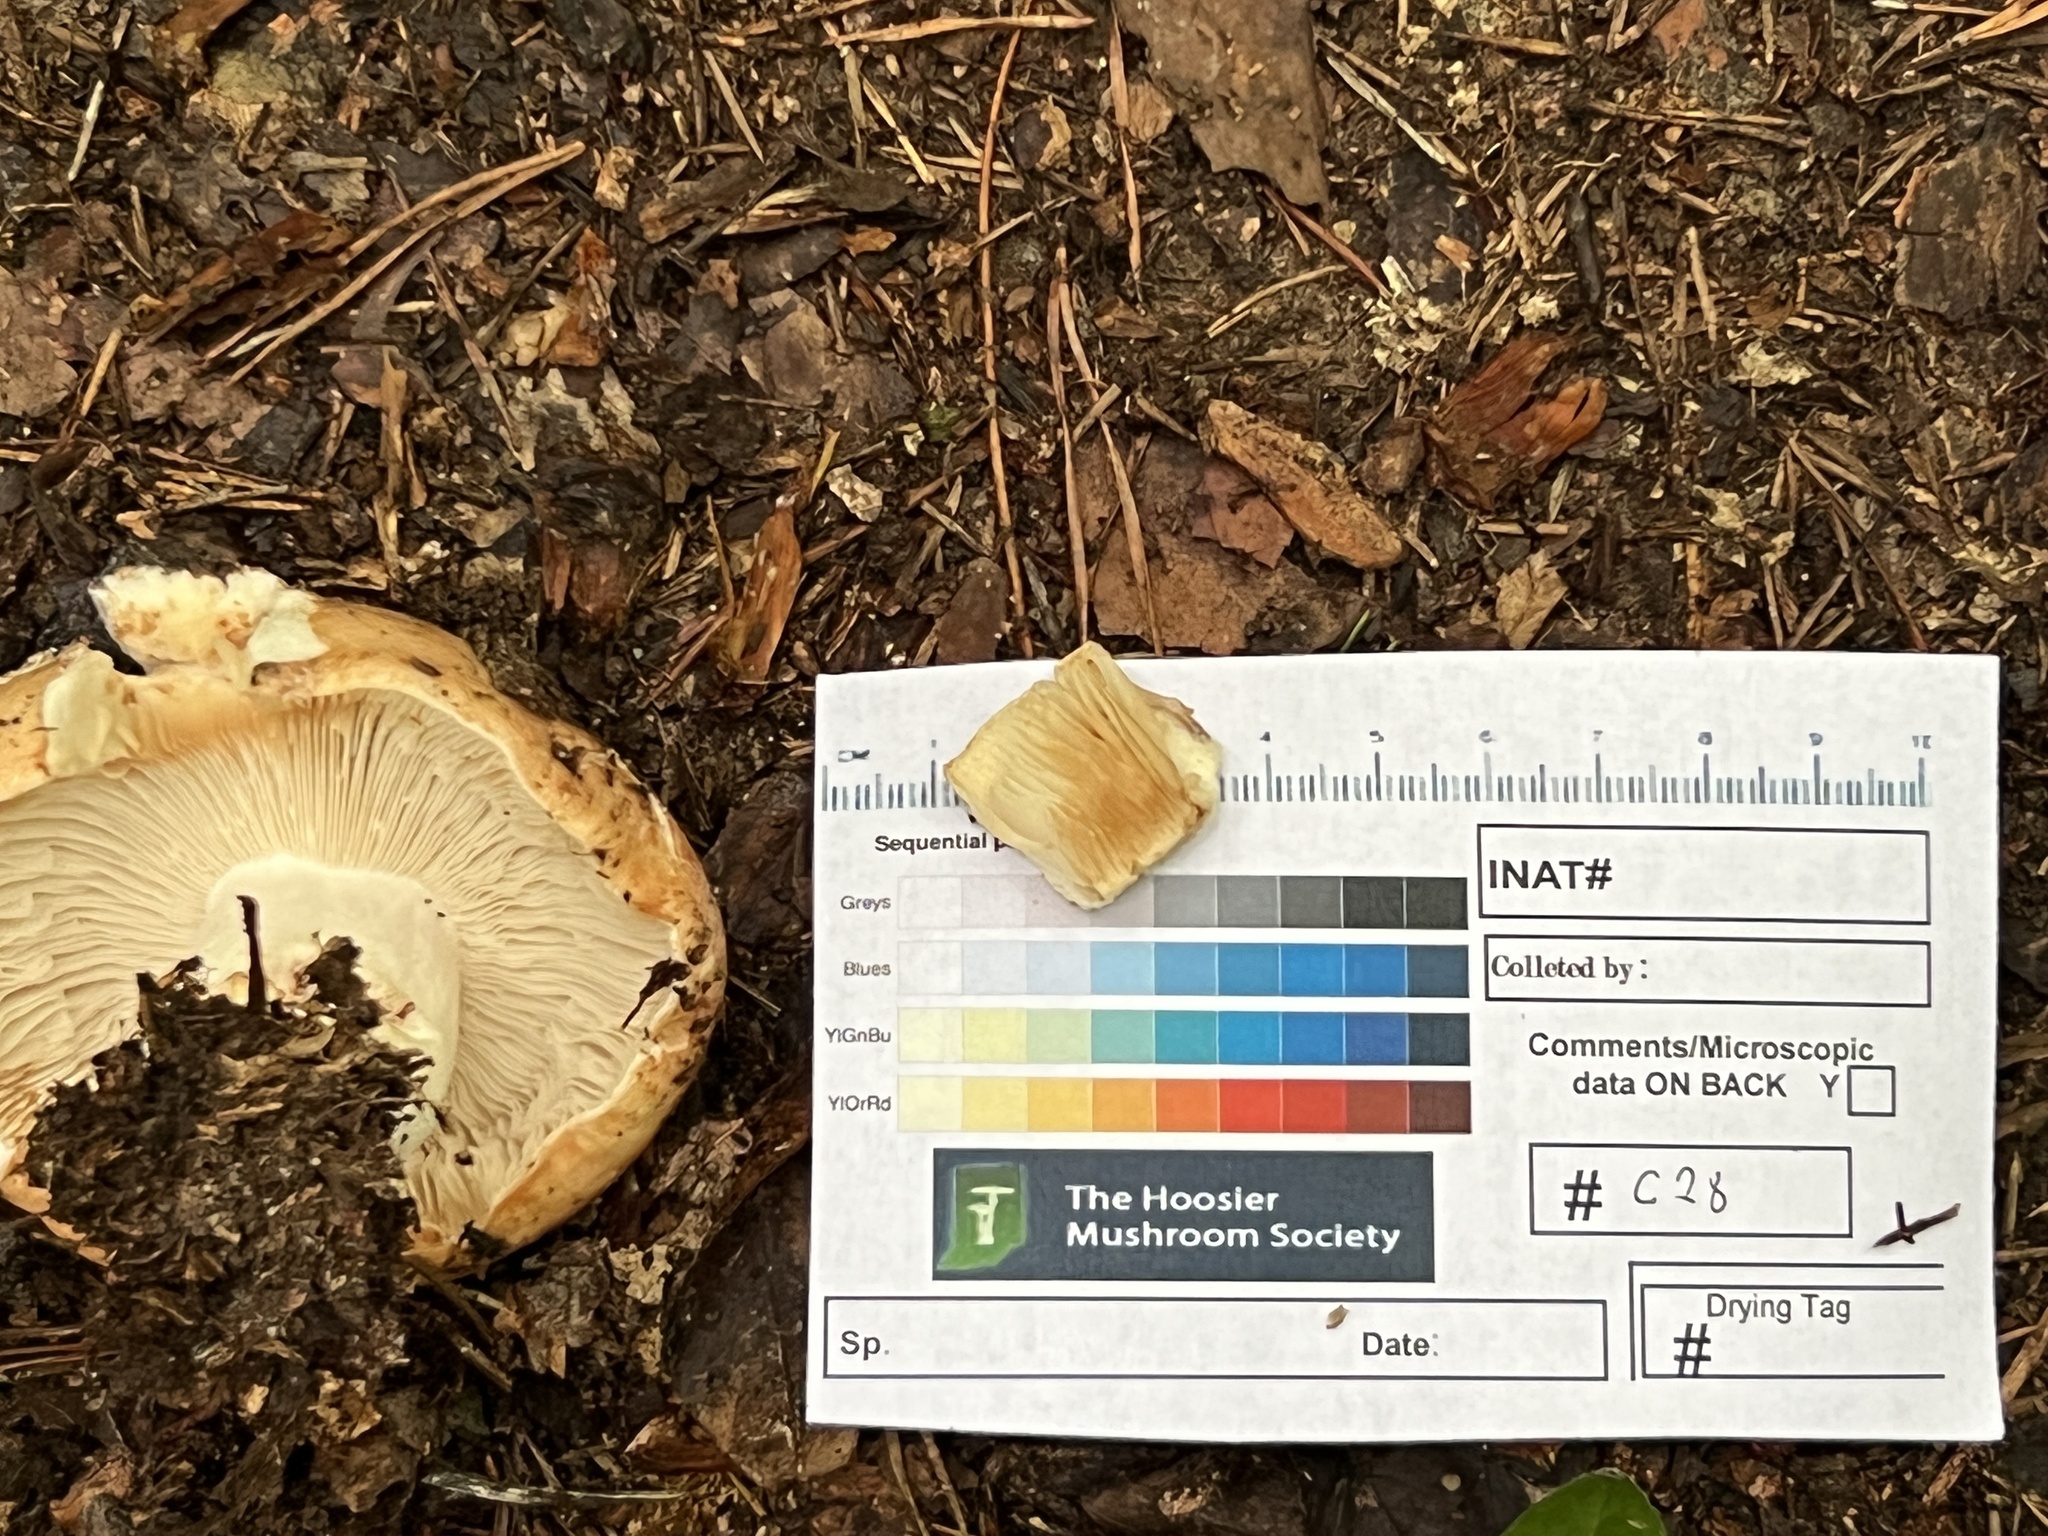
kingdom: Fungi
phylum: Basidiomycota
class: Agaricomycetes
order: Russulales
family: Russulaceae
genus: Russula
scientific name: Russula compacta
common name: Fishbiscuit russula
